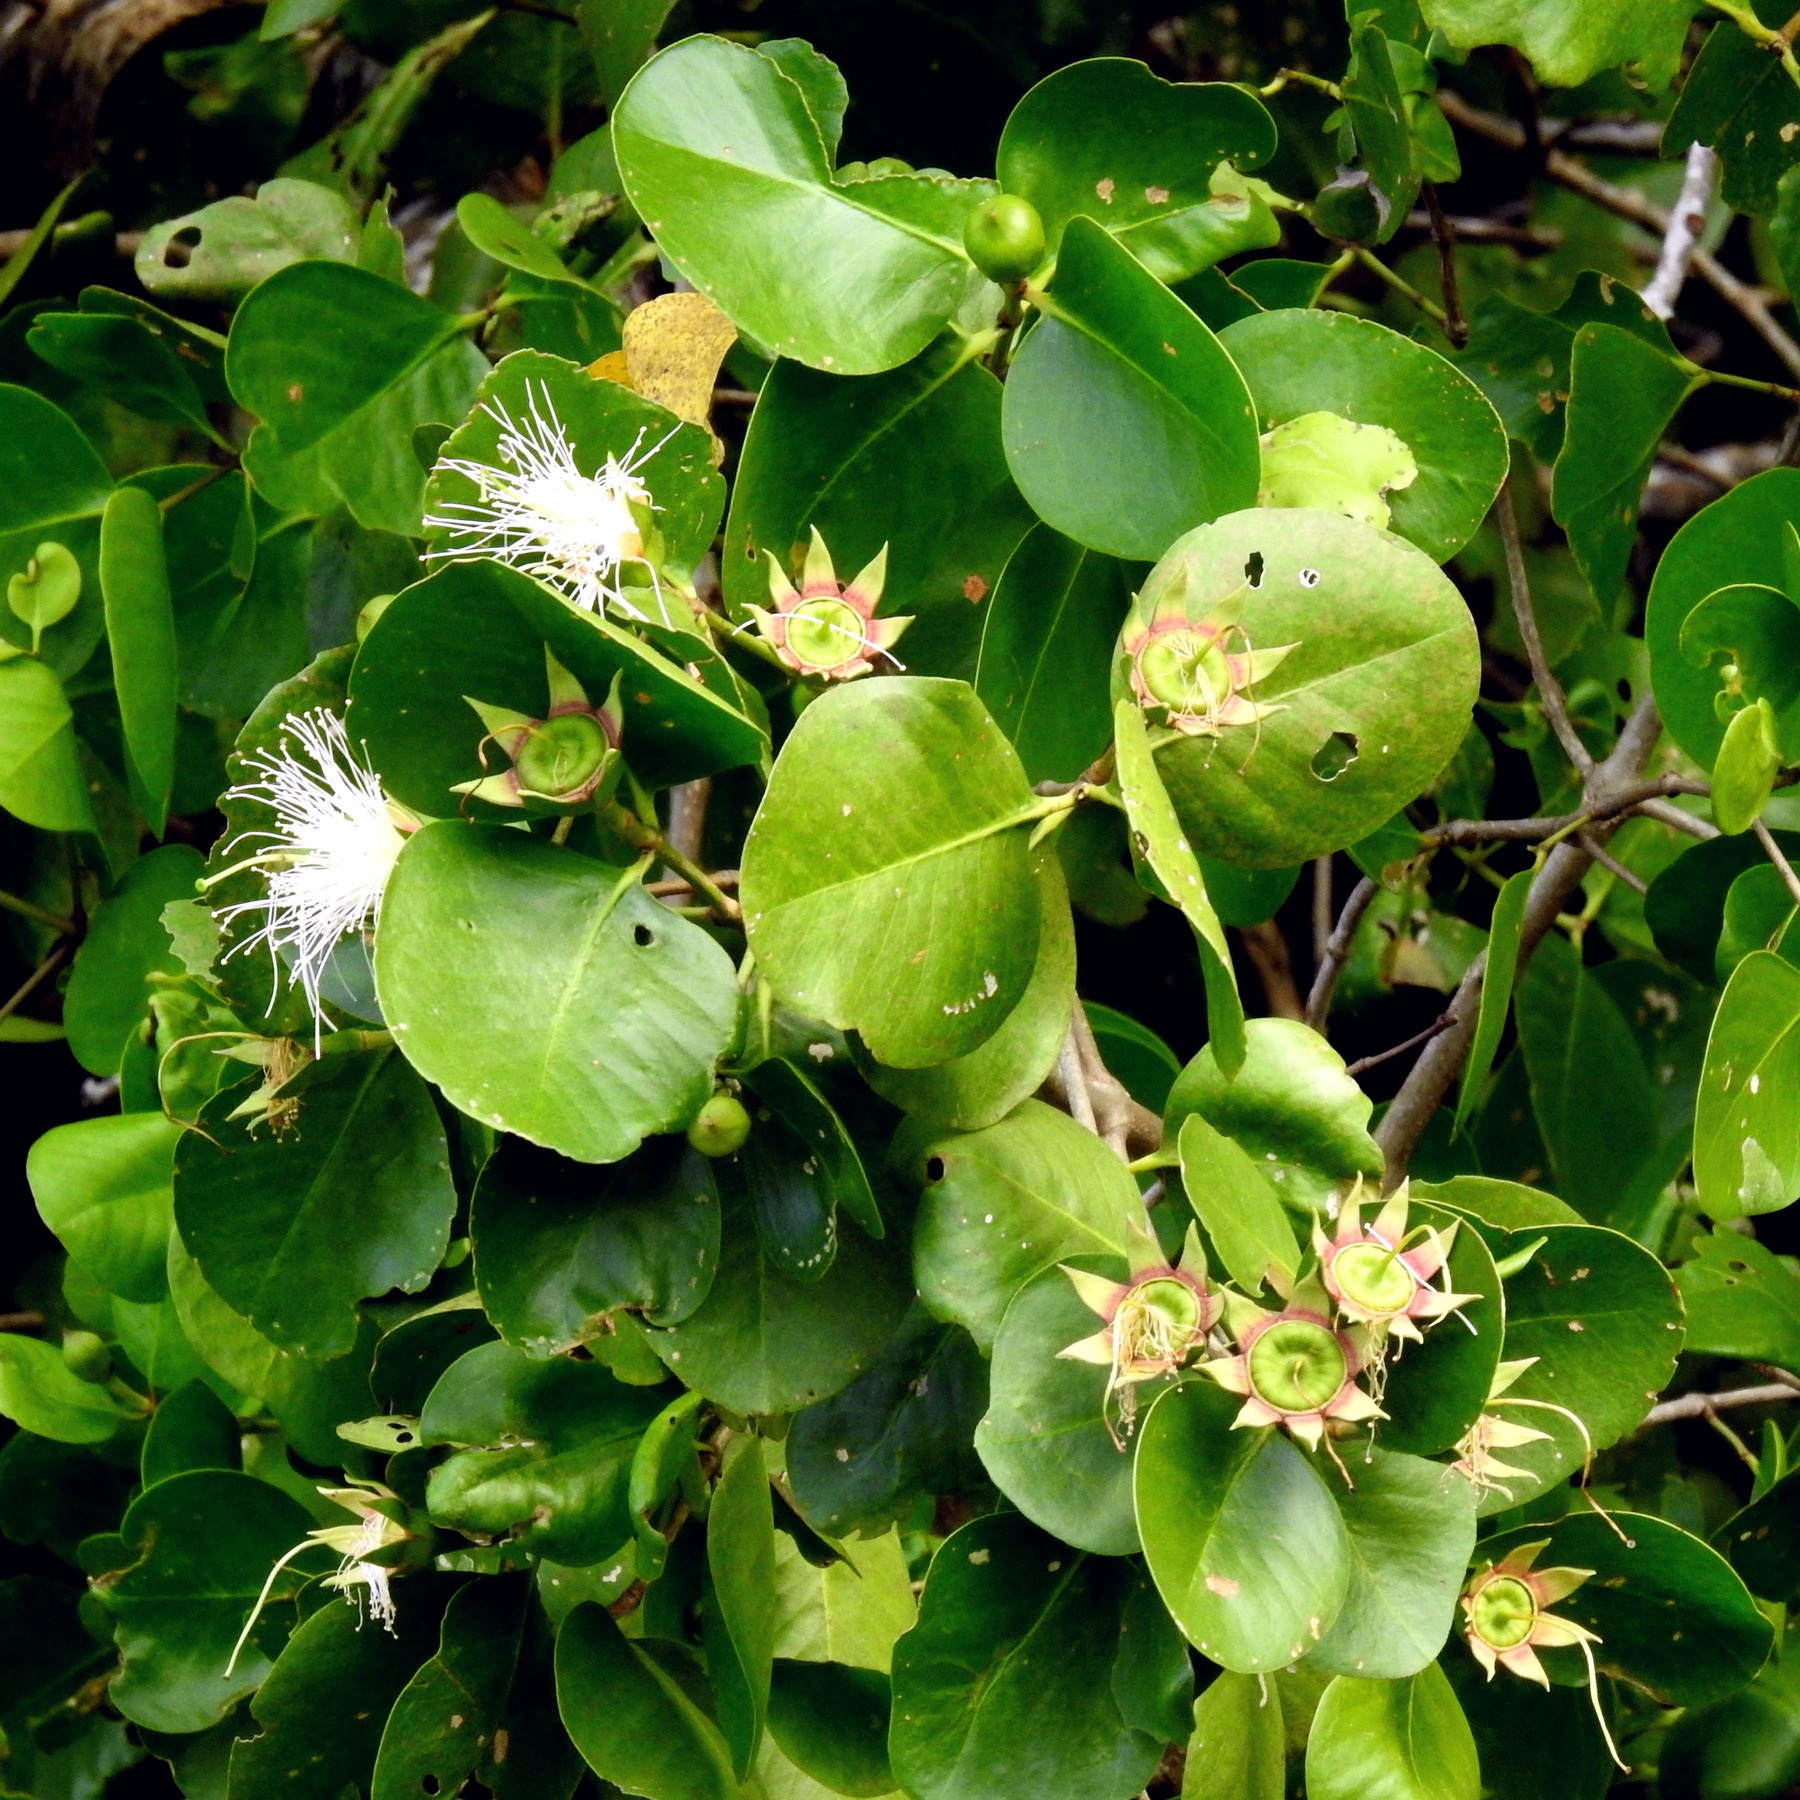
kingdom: Plantae
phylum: Tracheophyta
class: Magnoliopsida
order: Myrtales
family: Lythraceae
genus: Sonneratia
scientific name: Sonneratia alba
